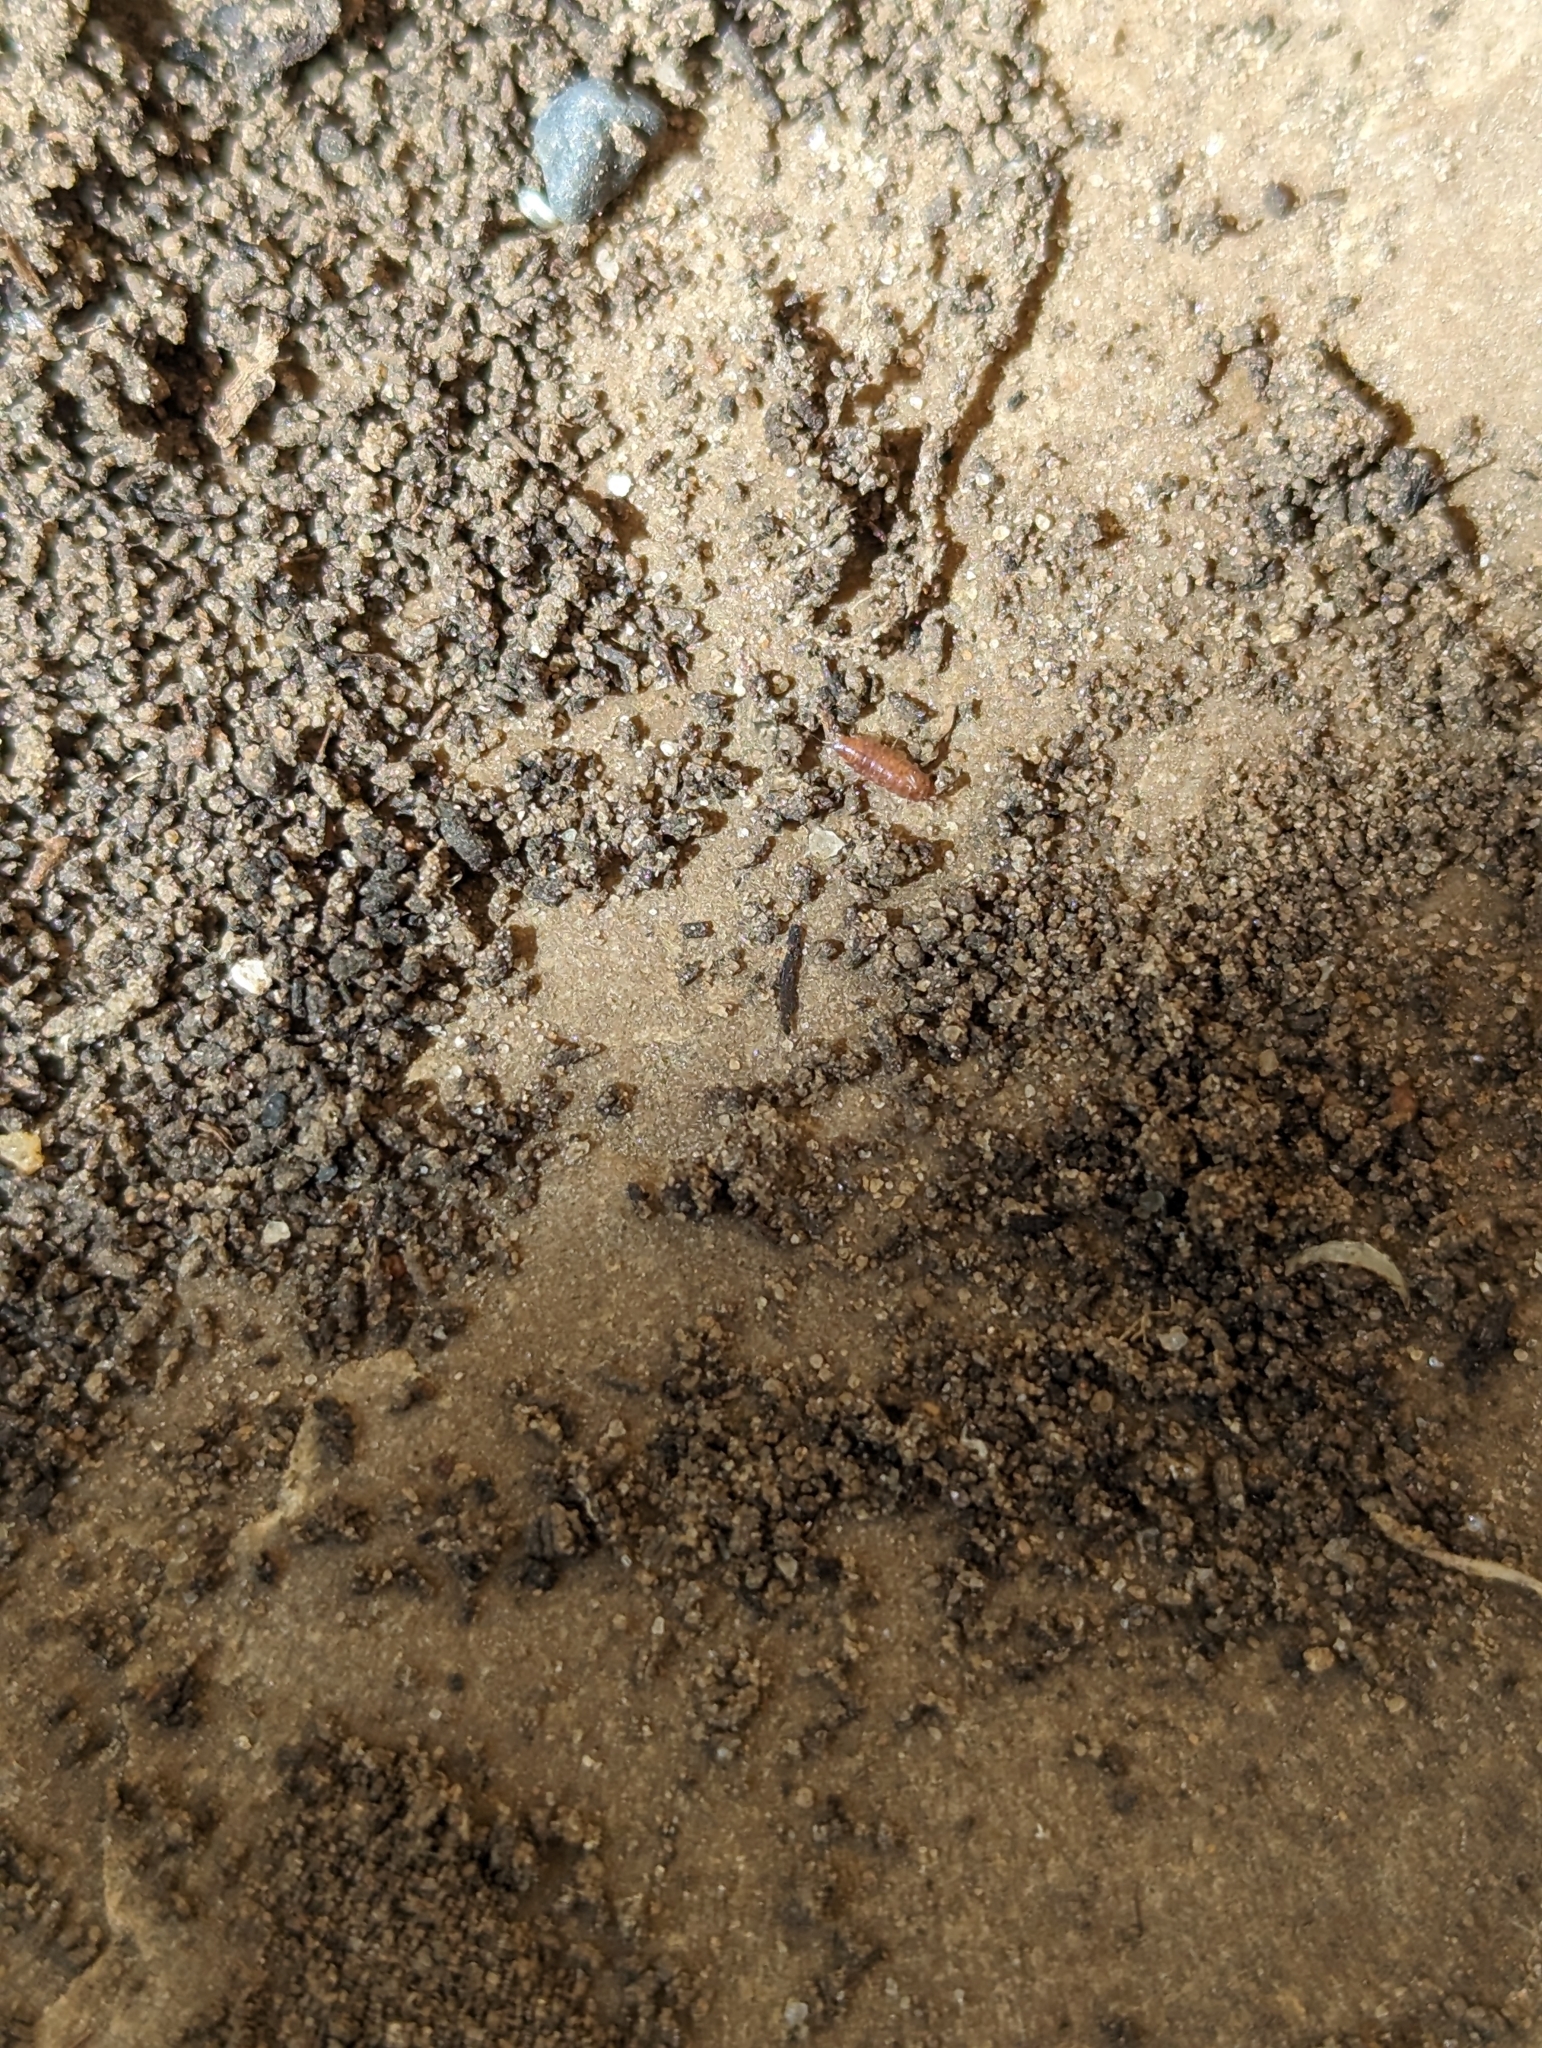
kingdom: Animalia
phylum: Arthropoda
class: Malacostraca
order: Isopoda
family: Trichoniscidae
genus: Trichoniscus
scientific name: Trichoniscus
